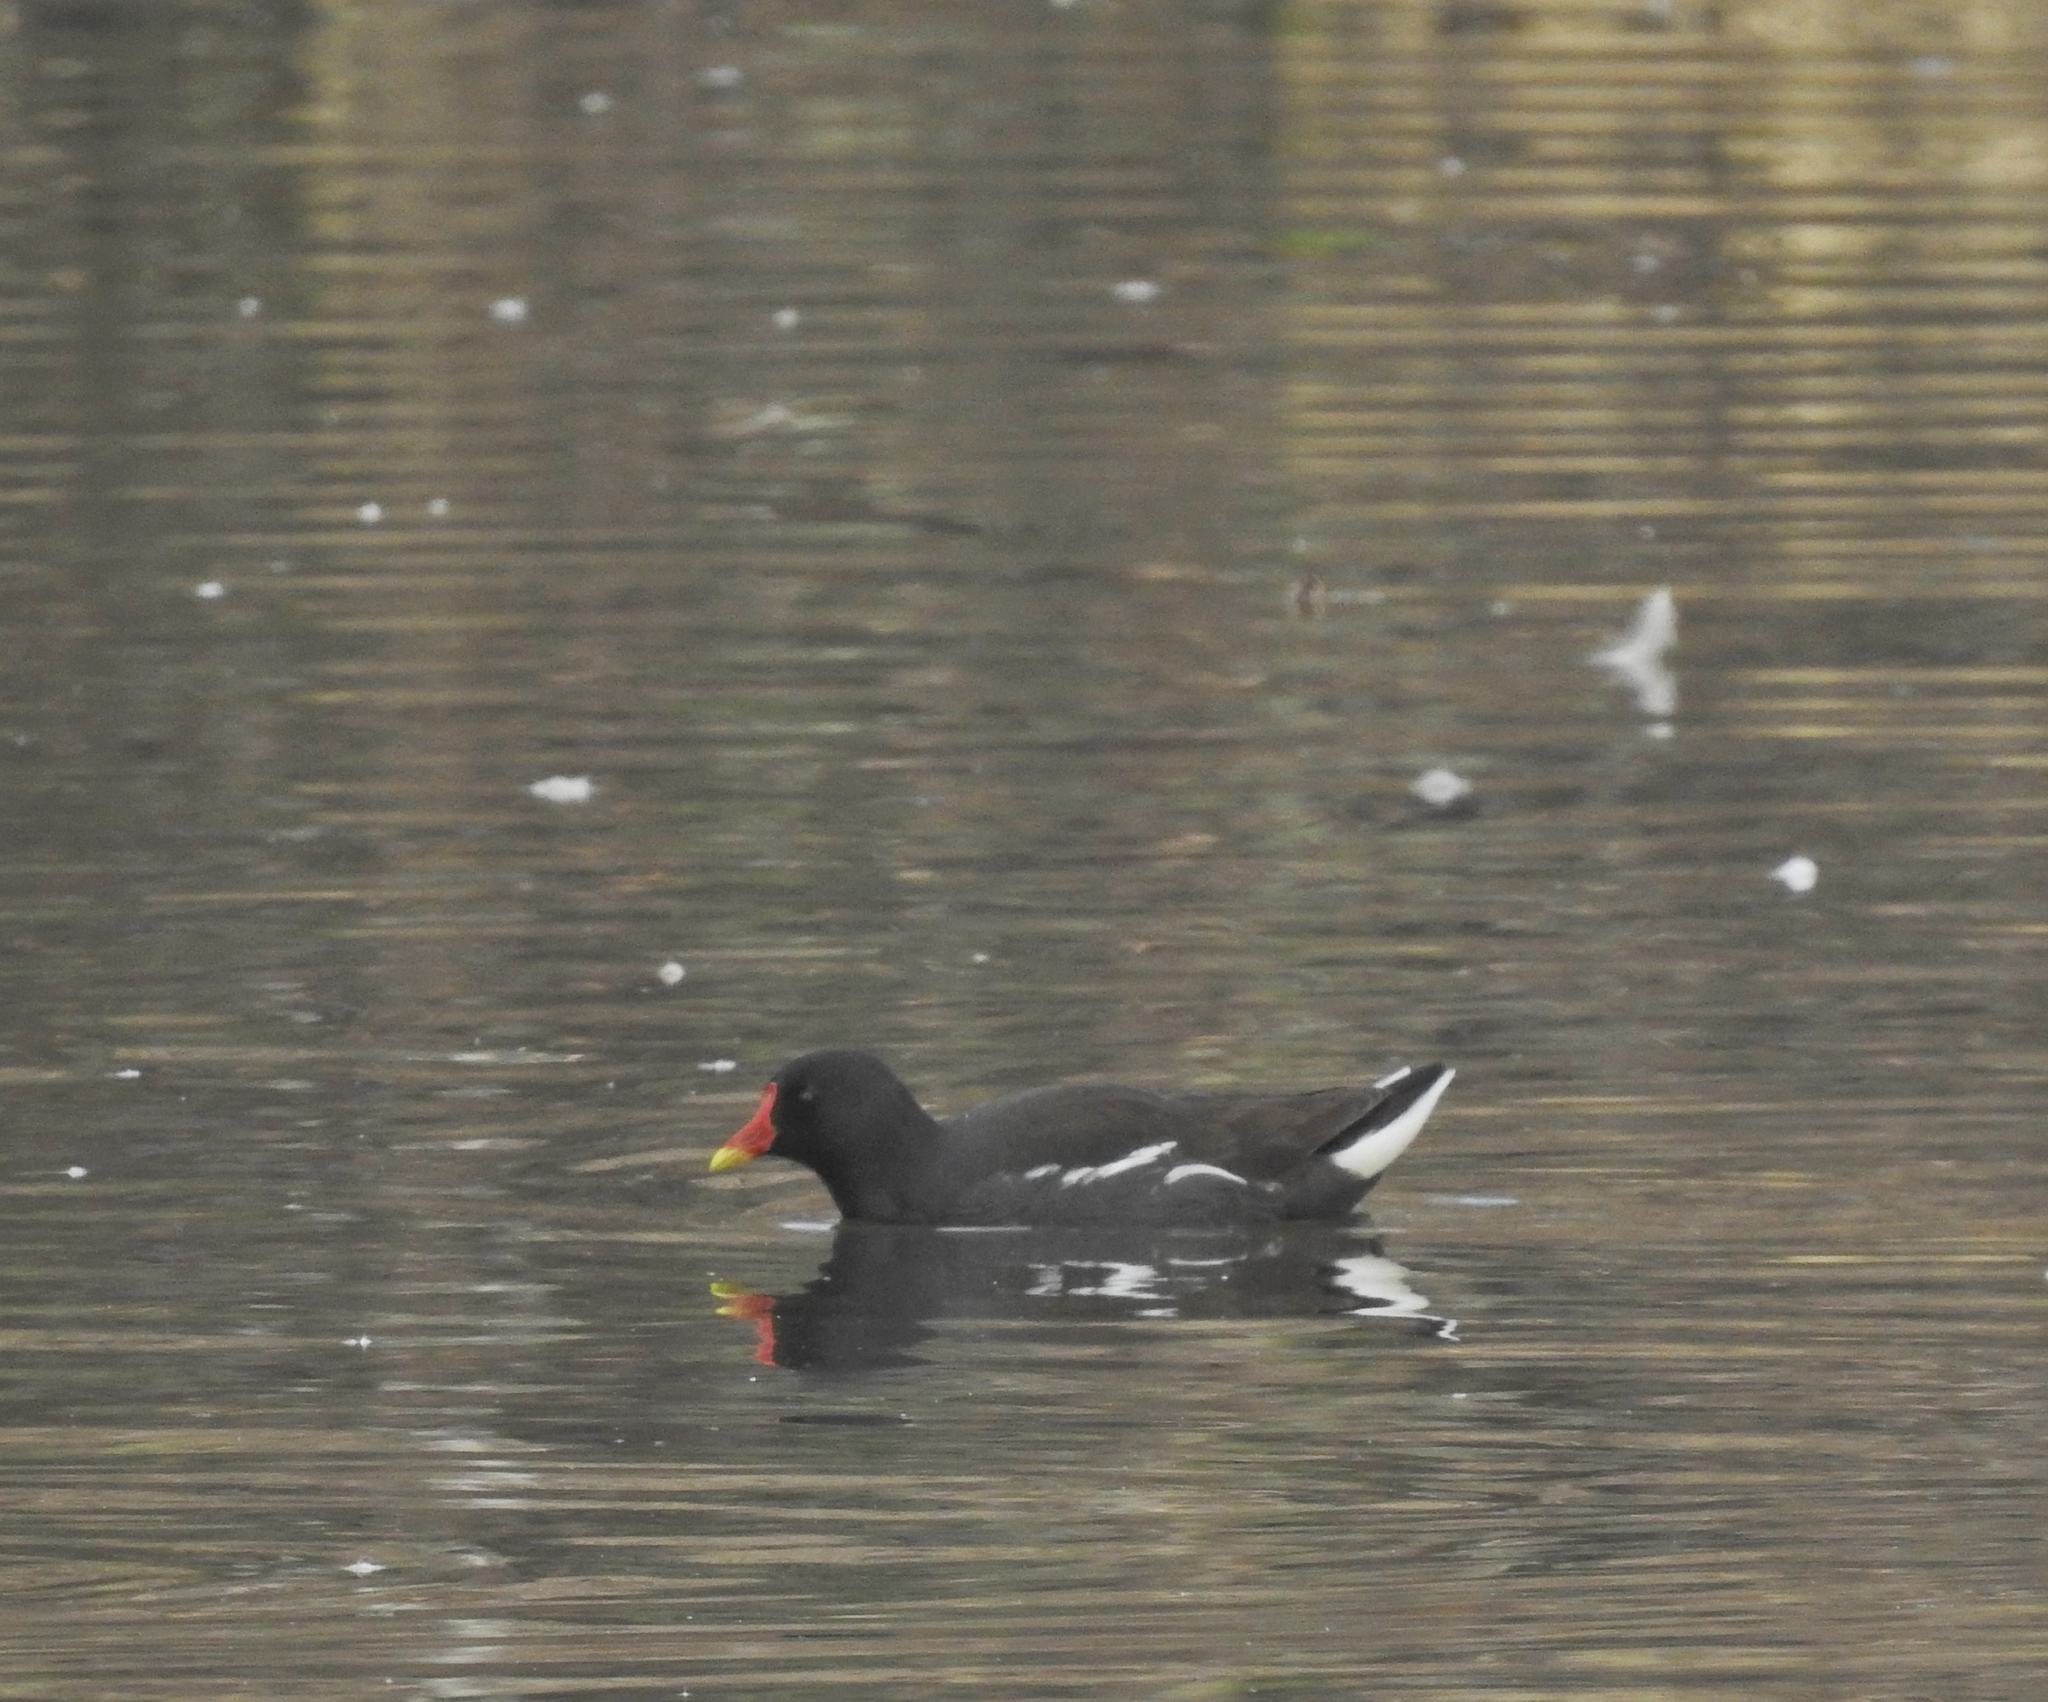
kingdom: Animalia
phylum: Chordata
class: Aves
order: Gruiformes
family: Rallidae
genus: Gallinula
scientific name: Gallinula chloropus
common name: Common moorhen
